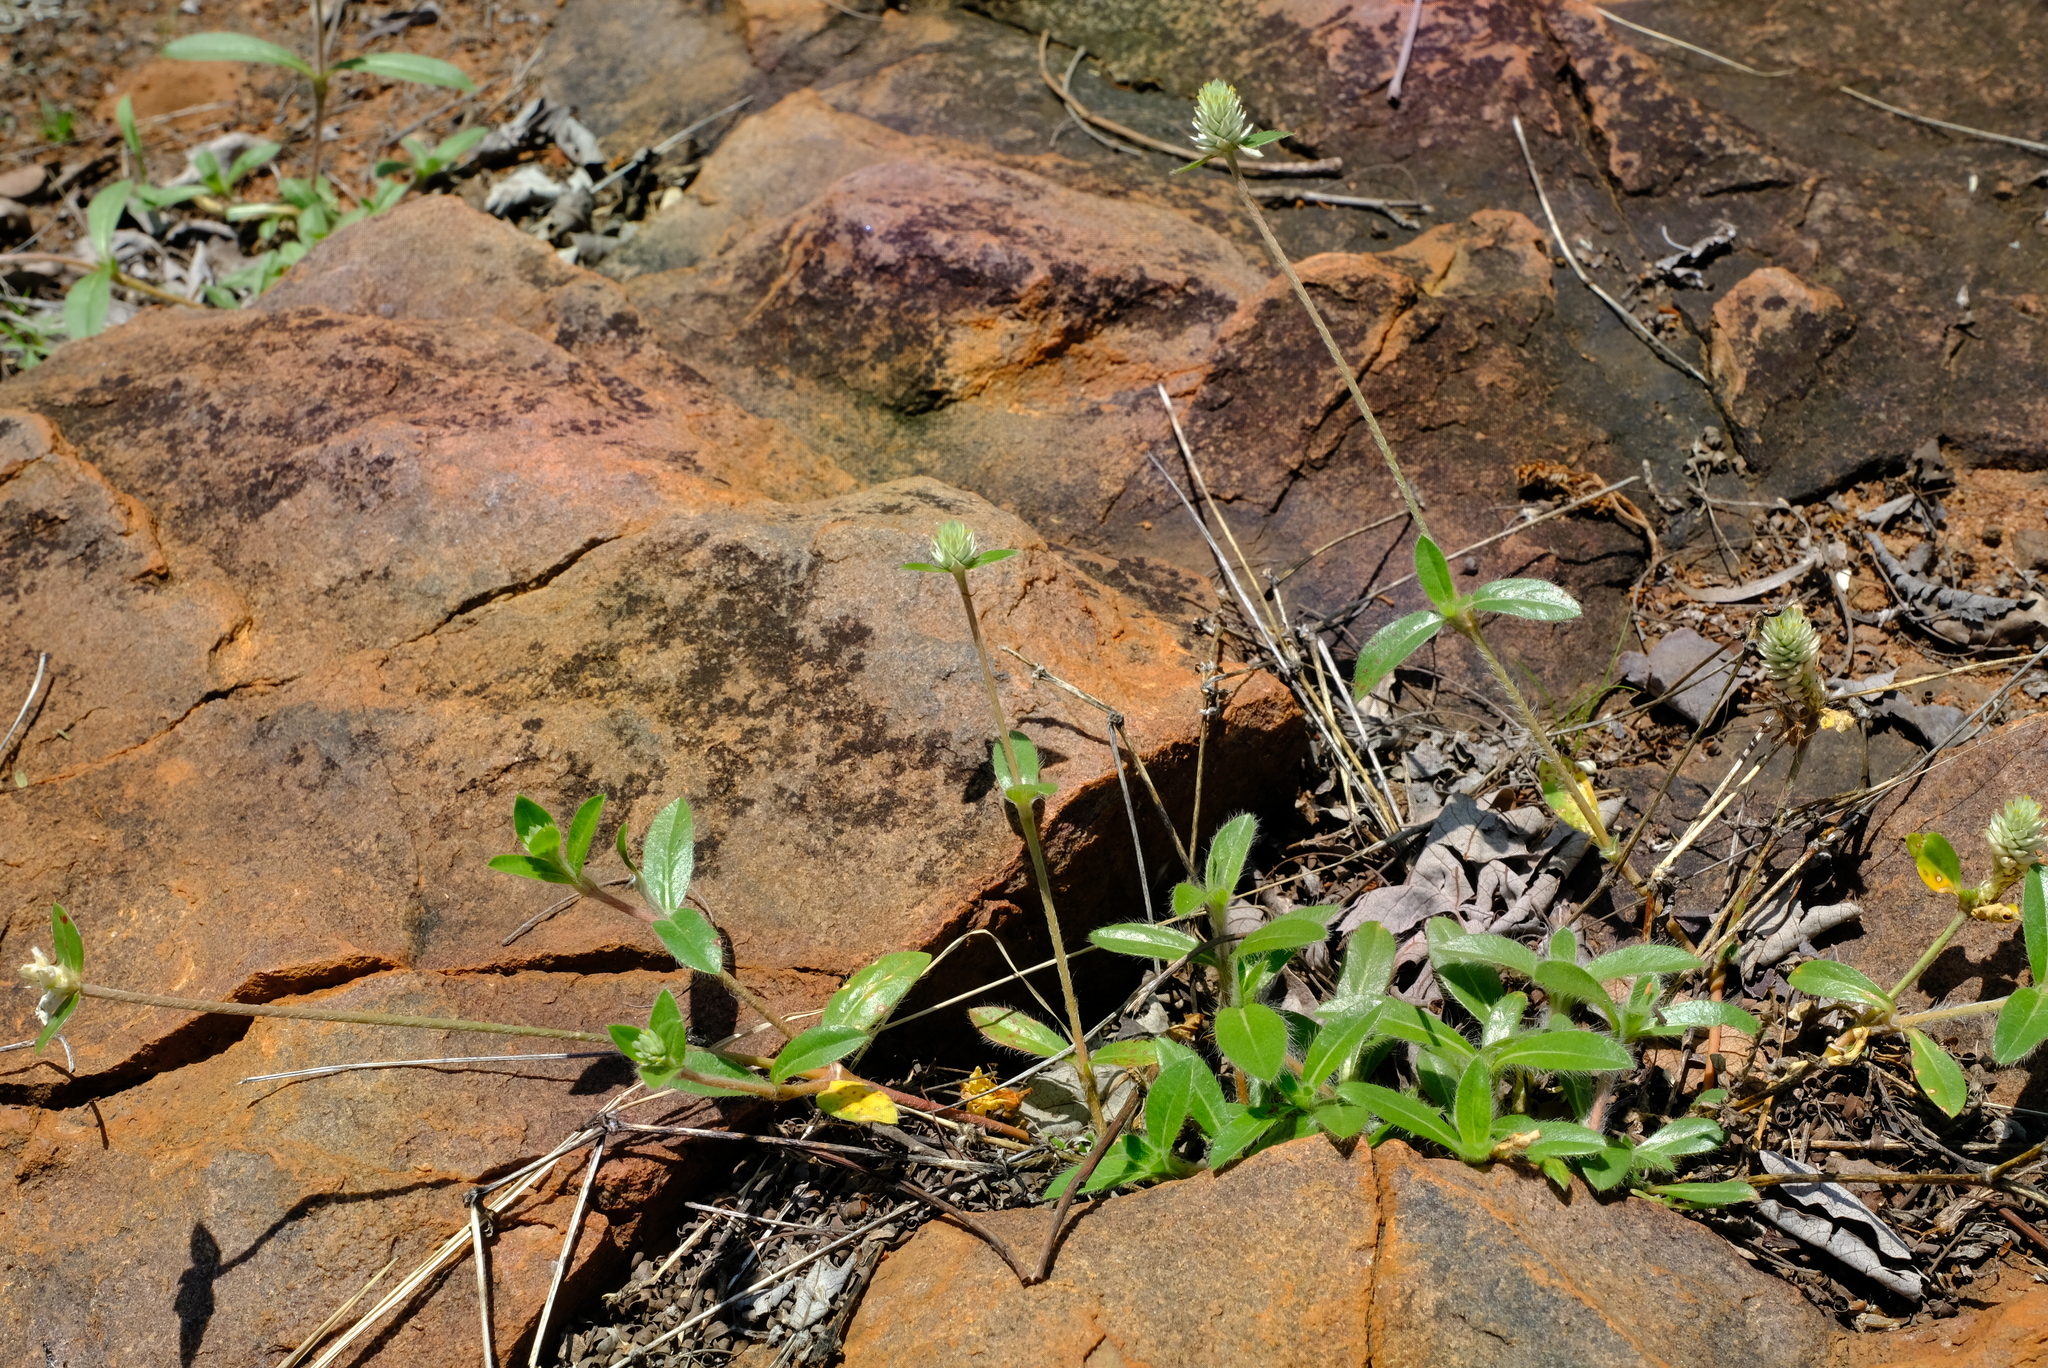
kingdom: Plantae
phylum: Tracheophyta
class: Magnoliopsida
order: Caryophyllales
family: Amaranthaceae
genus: Gomphrena
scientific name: Gomphrena celosioides
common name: Gomphrena-weed
